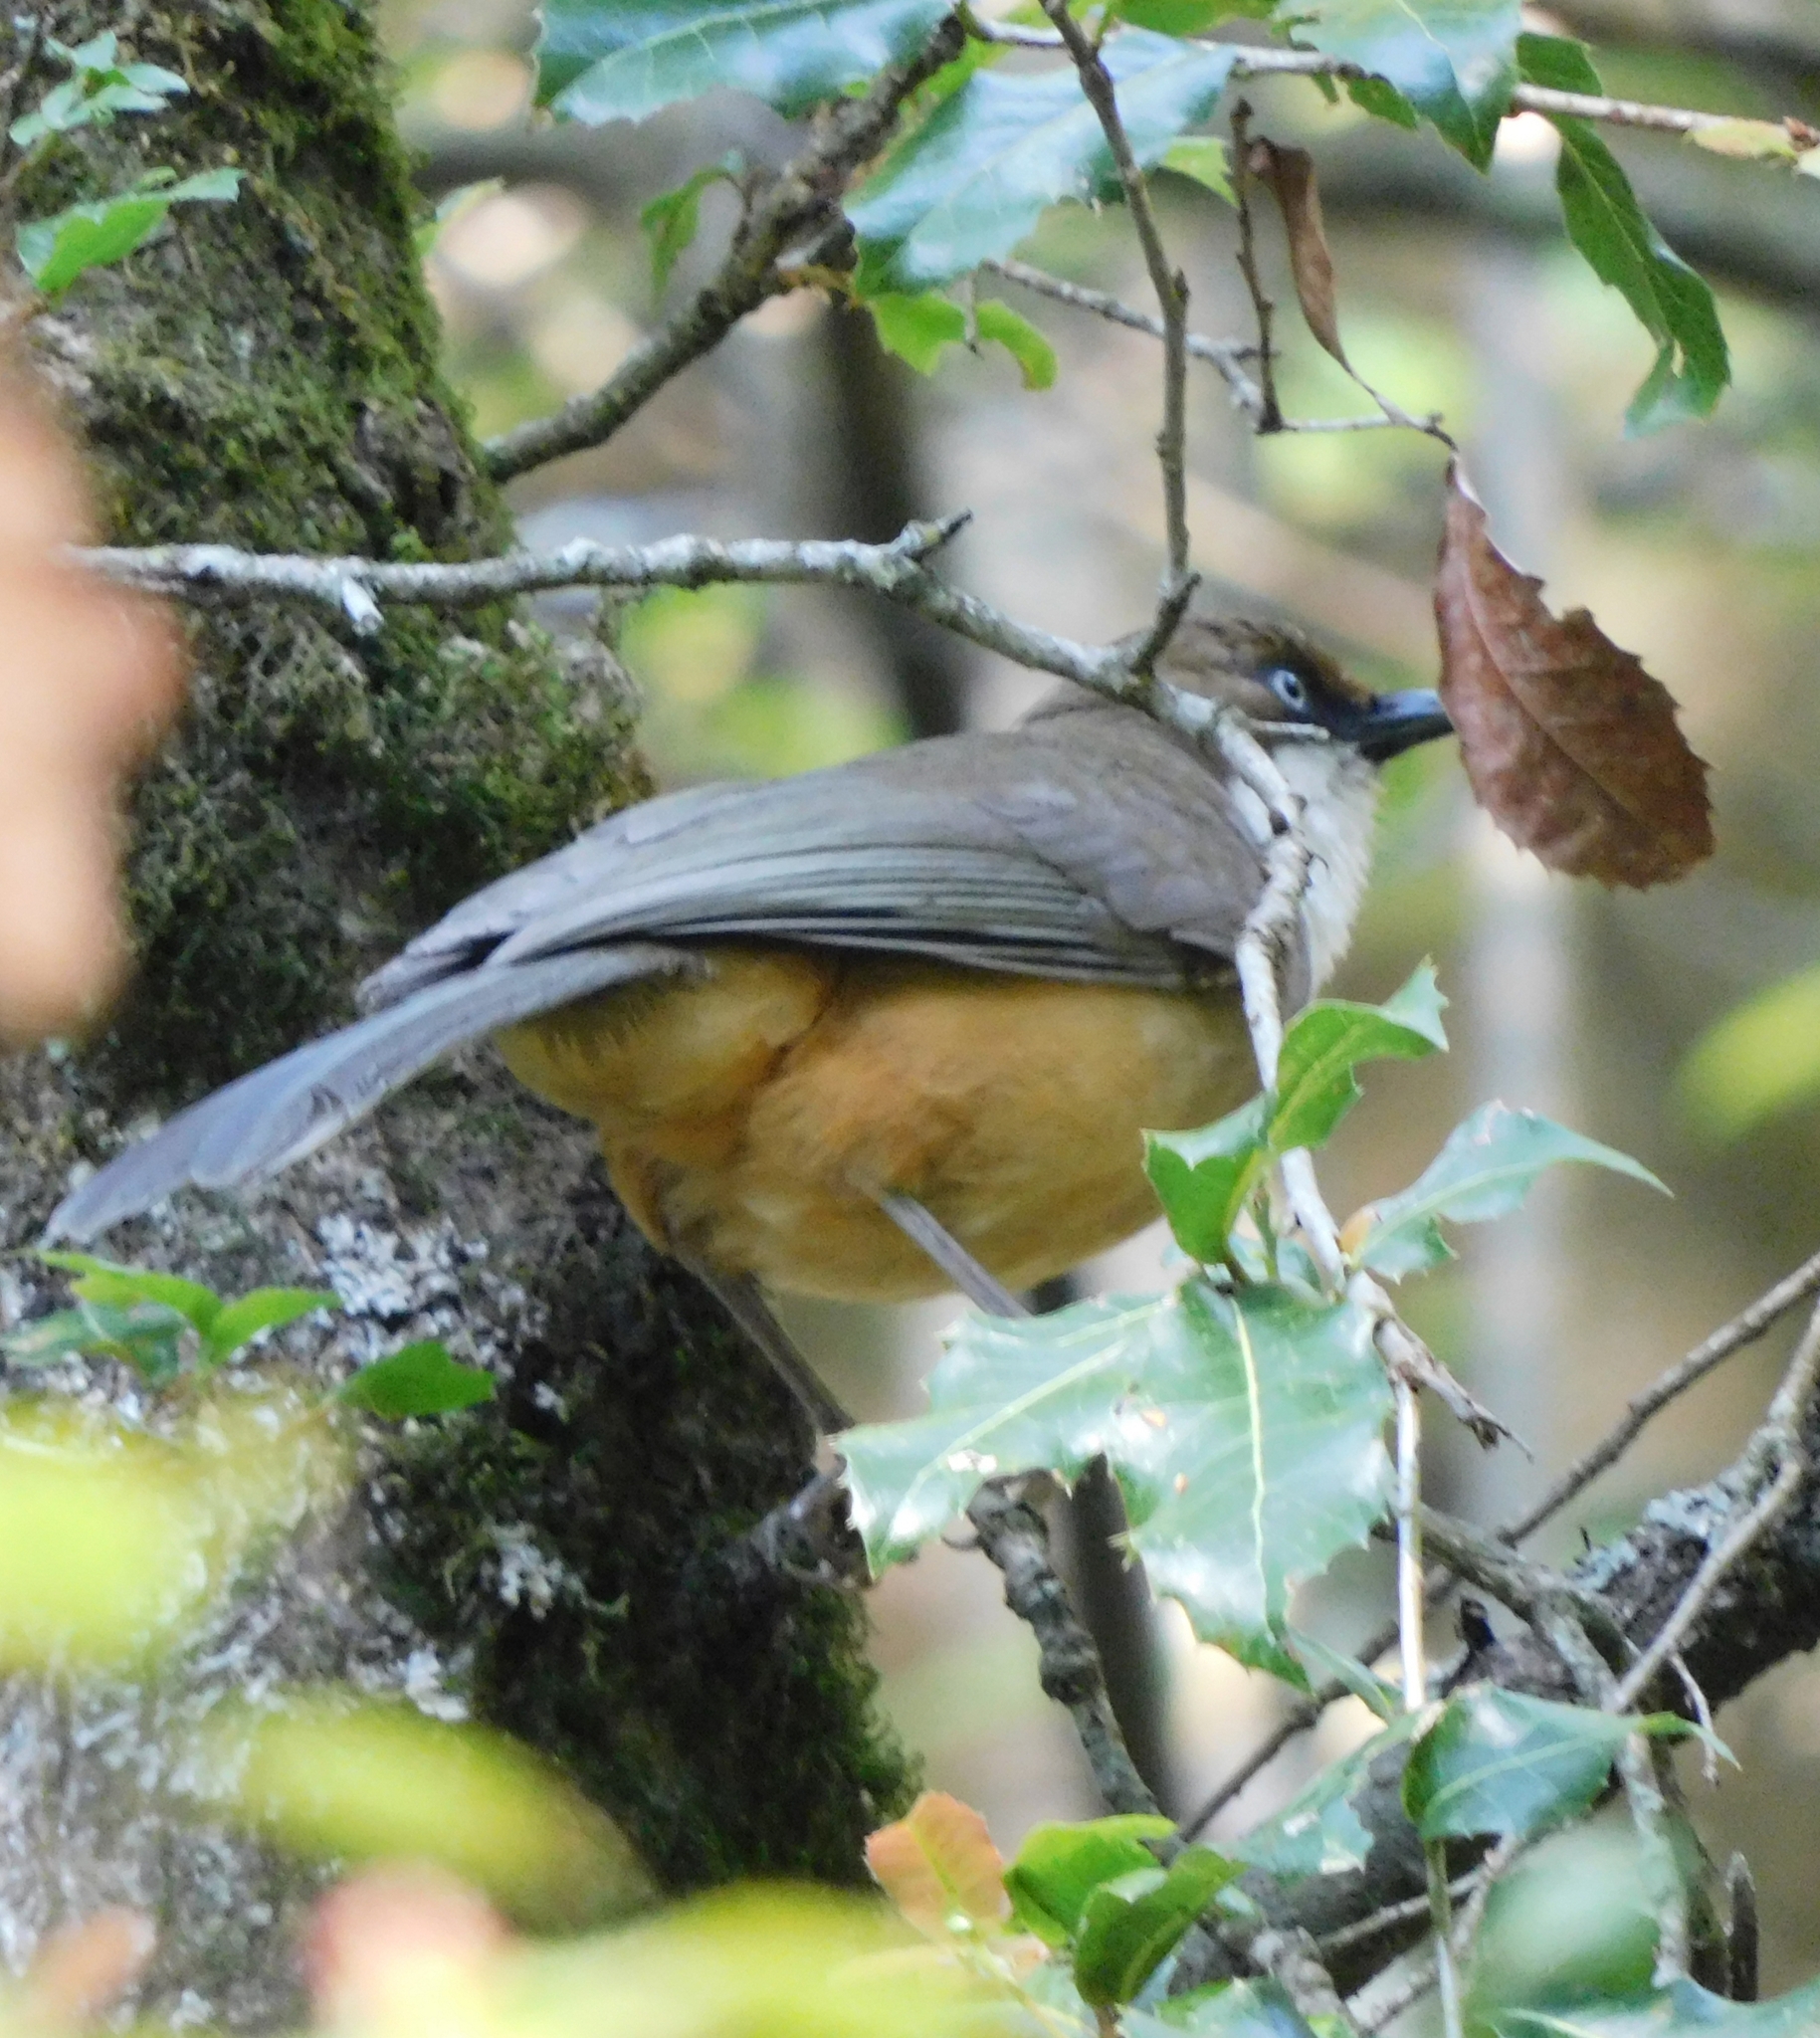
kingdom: Animalia
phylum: Chordata
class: Aves
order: Passeriformes
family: Leiothrichidae
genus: Garrulax
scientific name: Garrulax albogularis
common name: White-throated laughingthrush
